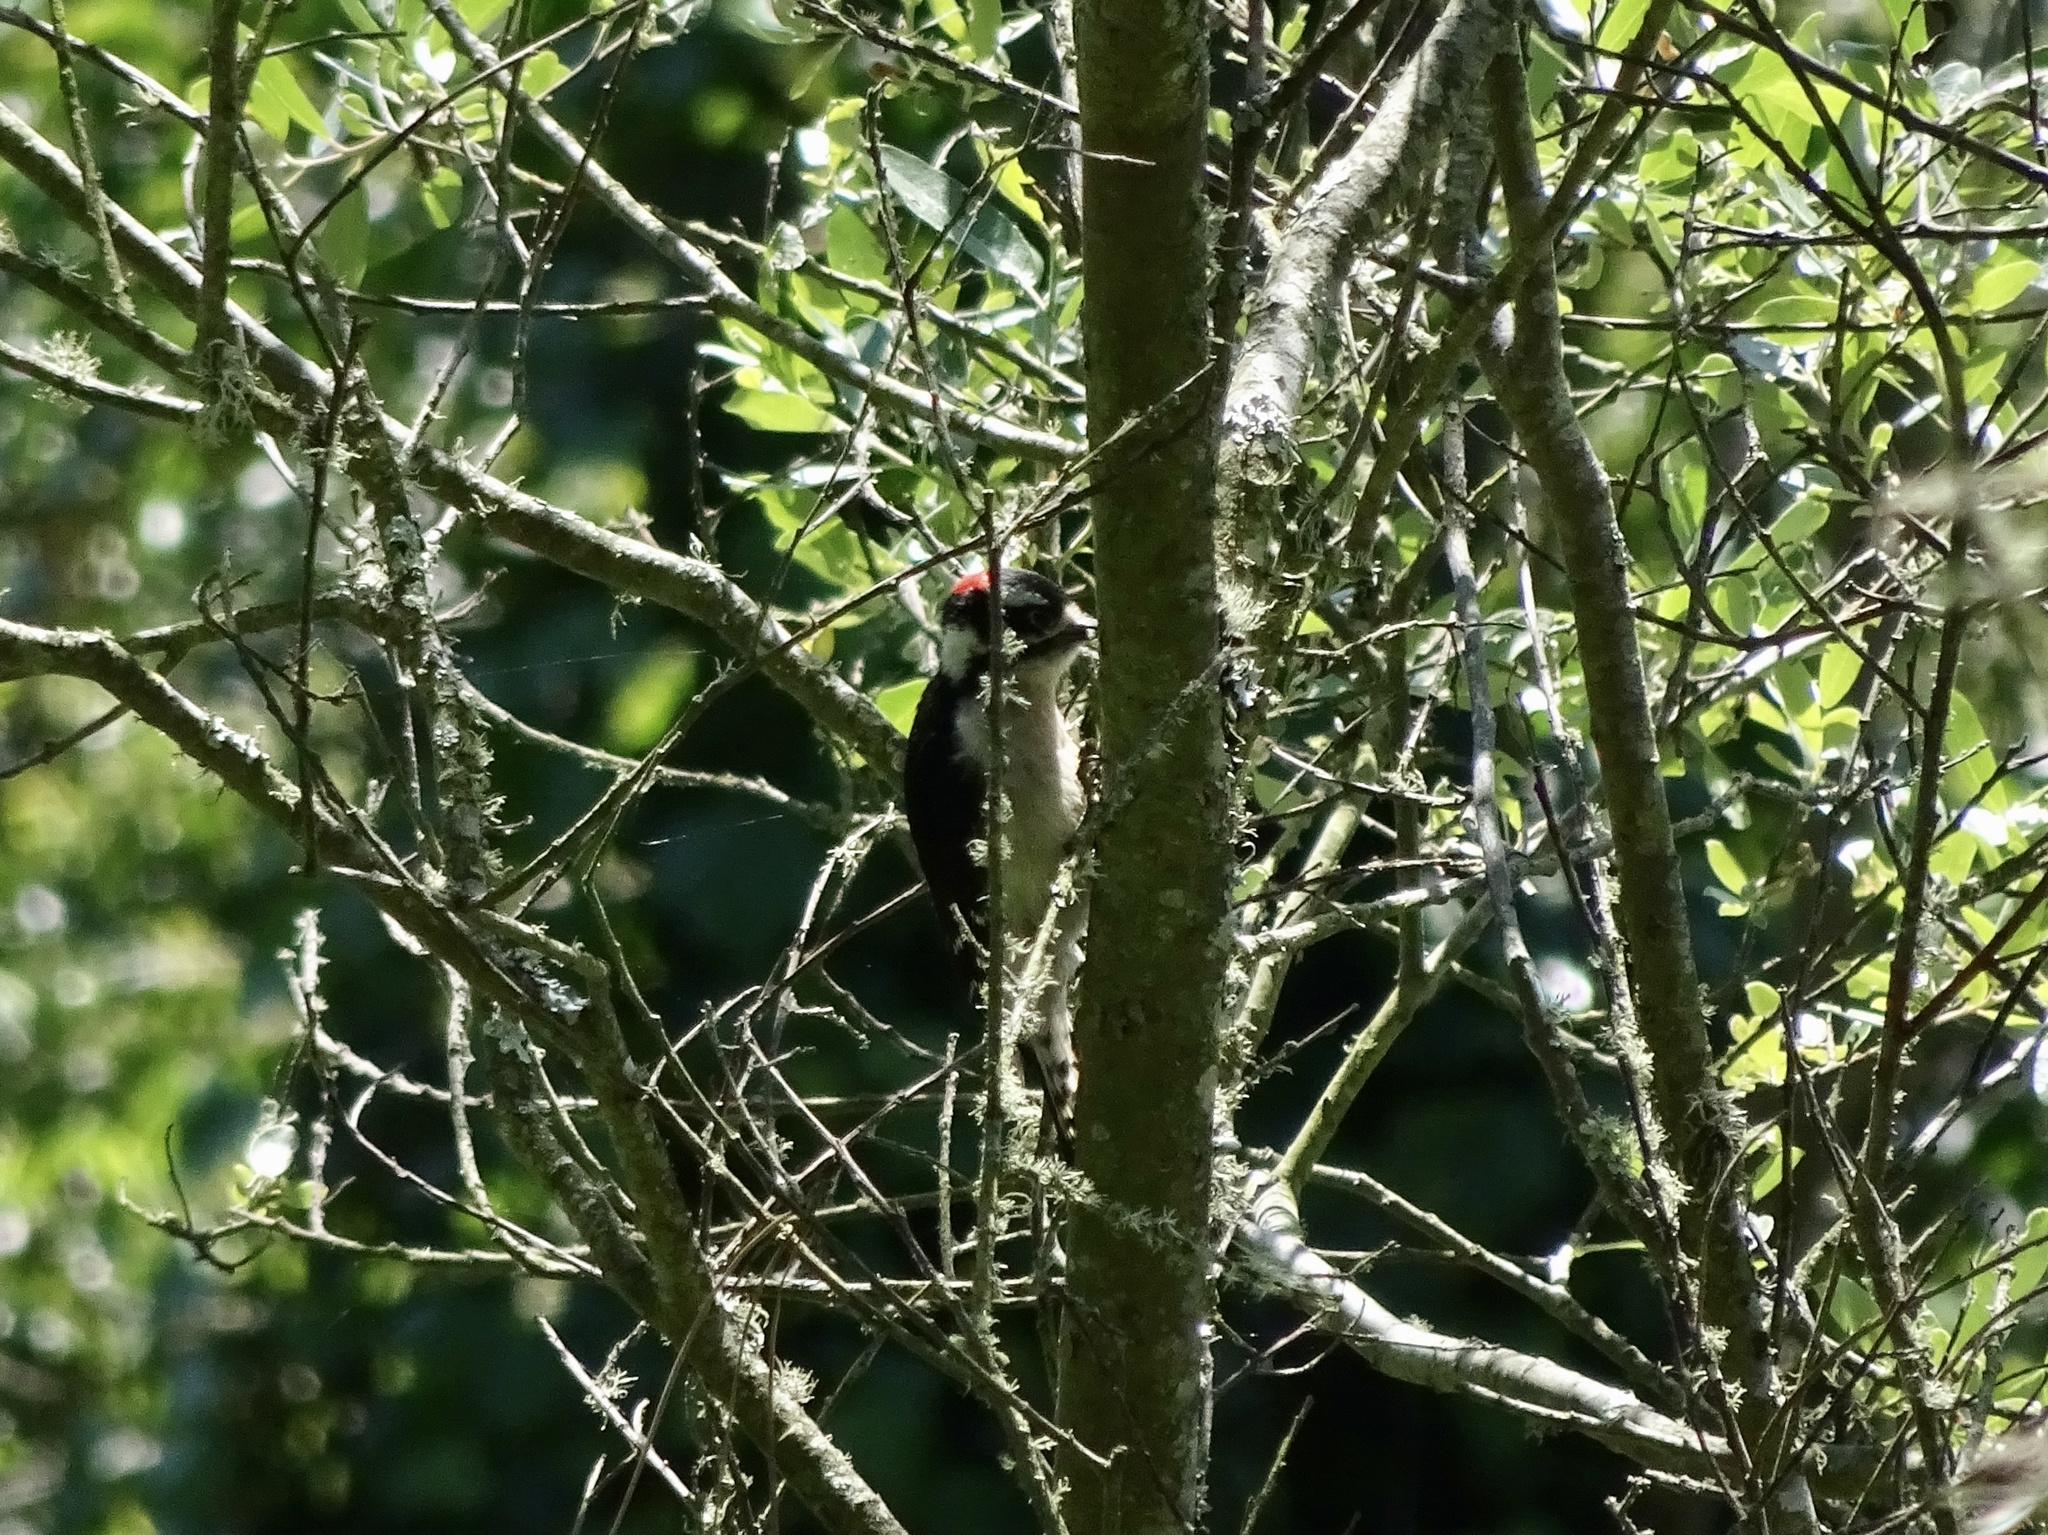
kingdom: Animalia
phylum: Chordata
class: Aves
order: Piciformes
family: Picidae
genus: Dryobates
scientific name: Dryobates pubescens
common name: Downy woodpecker
